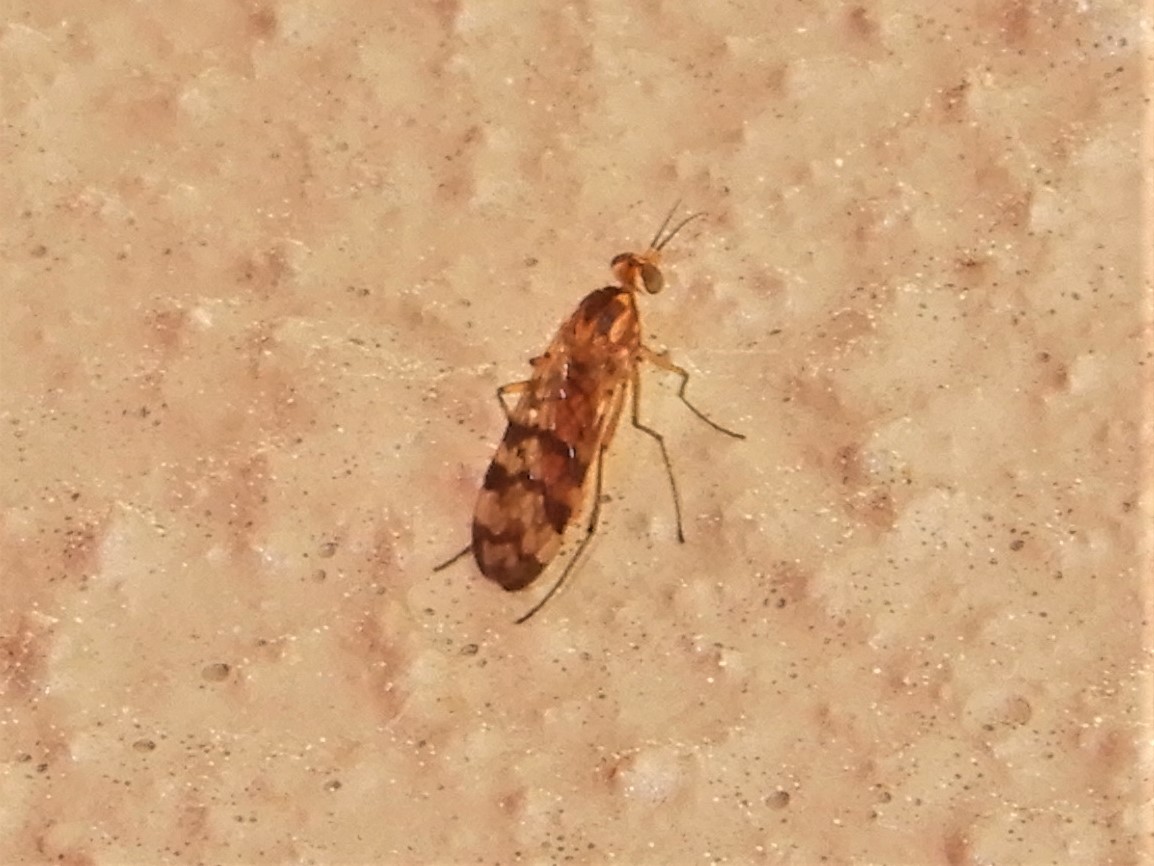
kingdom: Animalia
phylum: Arthropoda
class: Insecta
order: Diptera
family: Anisopodidae
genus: Sylvicola
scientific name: Sylvicola dubius
